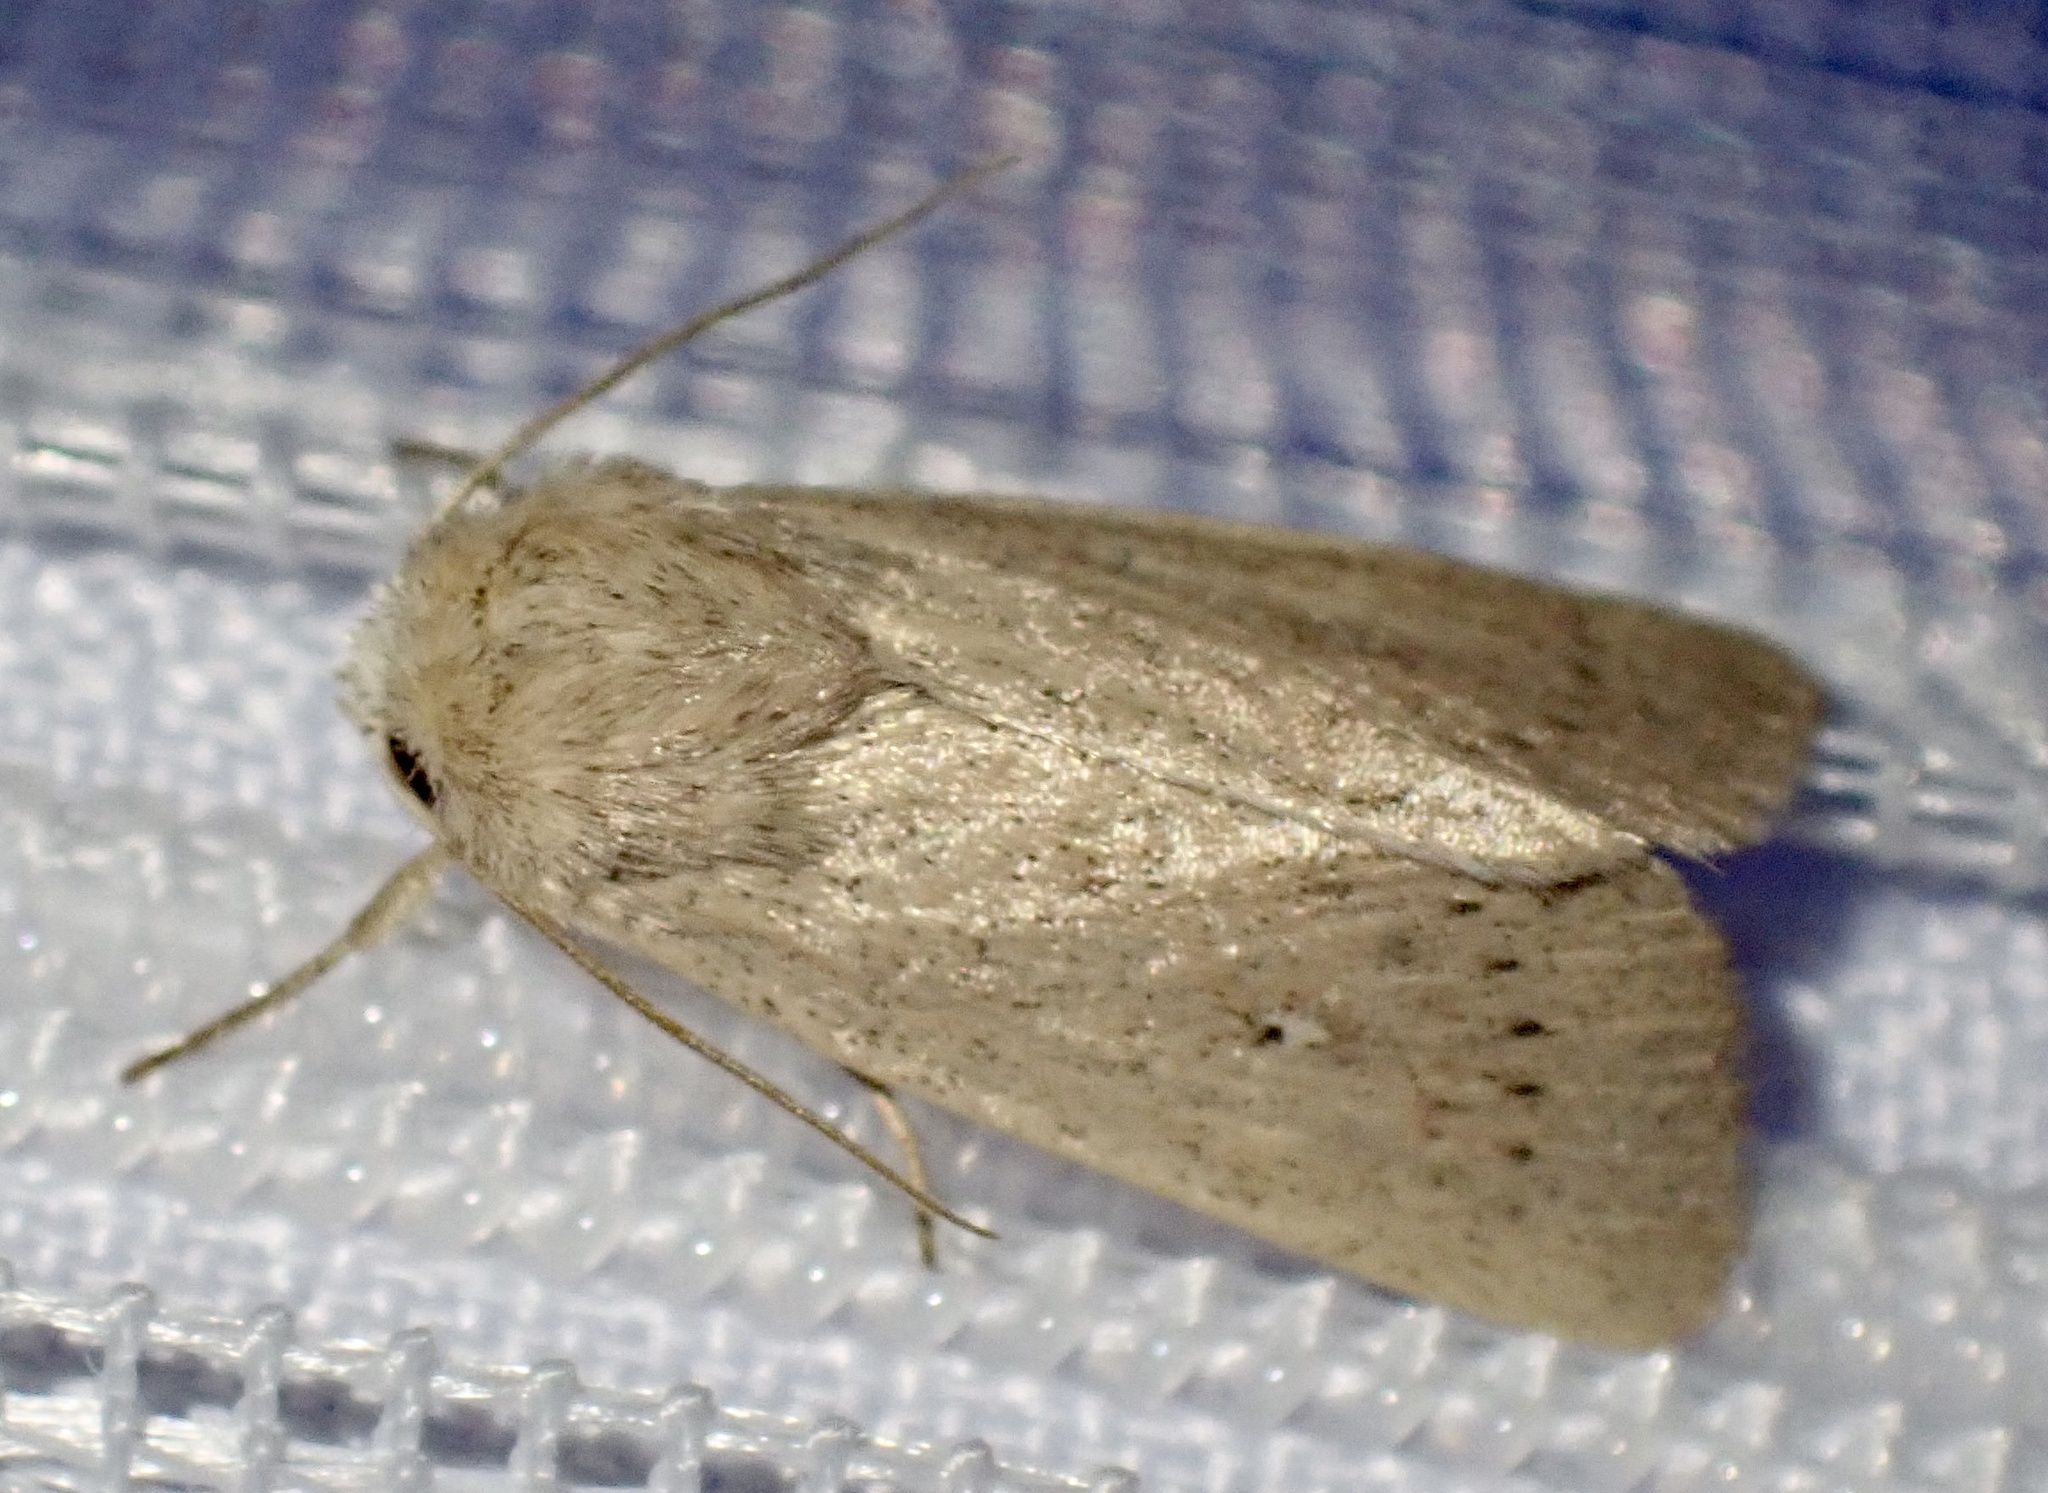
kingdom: Animalia
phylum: Arthropoda
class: Insecta
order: Lepidoptera
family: Noctuidae
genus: Mythimna
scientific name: Mythimna sicula
